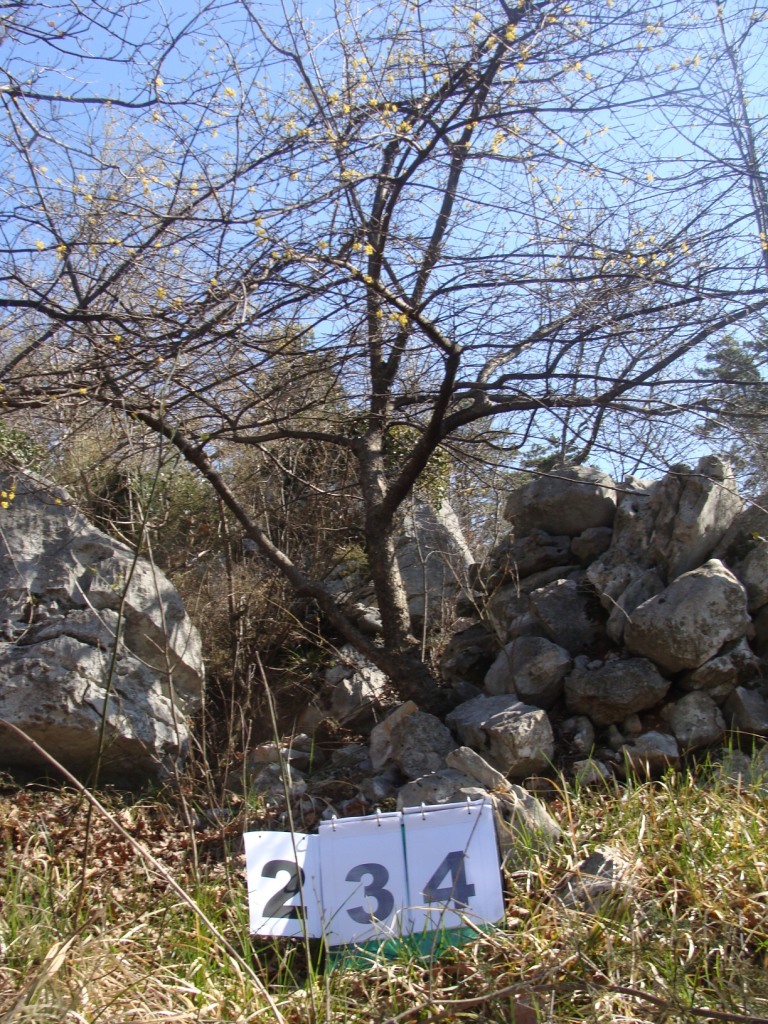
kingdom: Plantae
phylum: Tracheophyta
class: Magnoliopsida
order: Cornales
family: Cornaceae
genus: Cornus
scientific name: Cornus mas
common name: Cornelian-cherry
